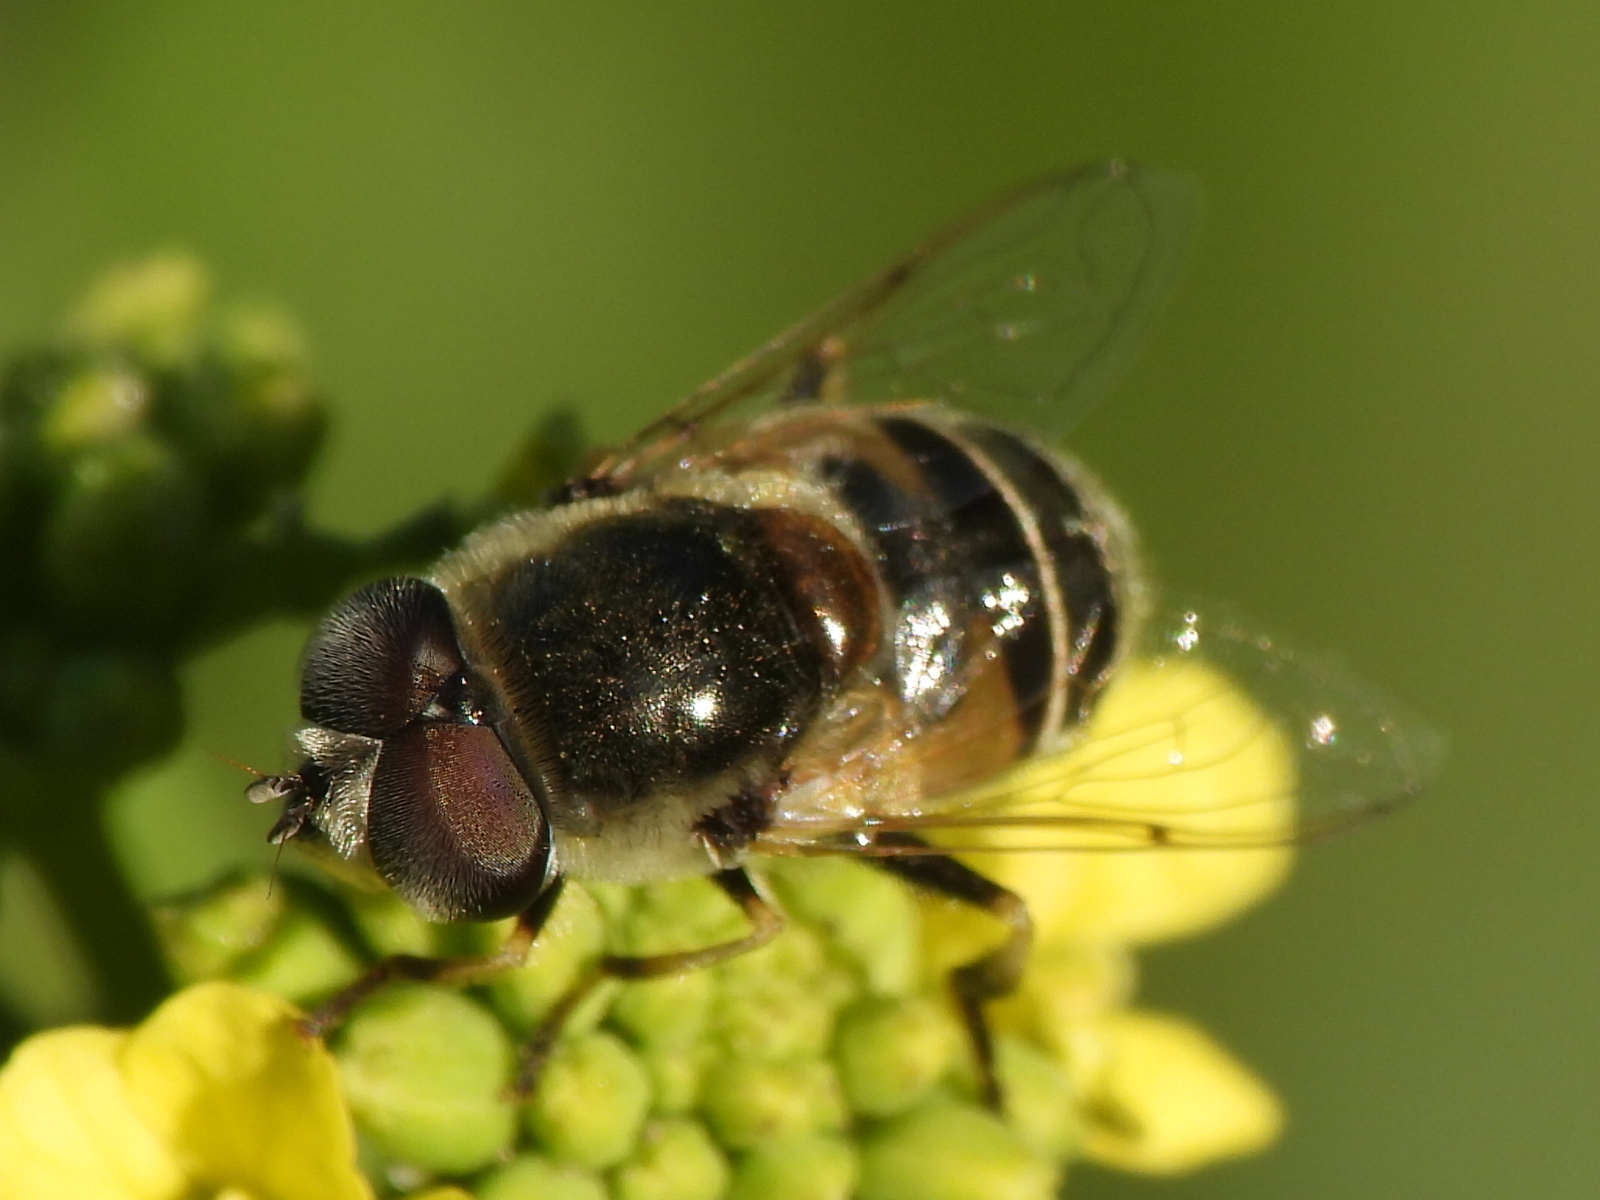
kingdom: Animalia
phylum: Arthropoda
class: Insecta
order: Diptera
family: Syrphidae
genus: Eristalis
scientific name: Eristalis stipator
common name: Yellow-shouldered drone fly
